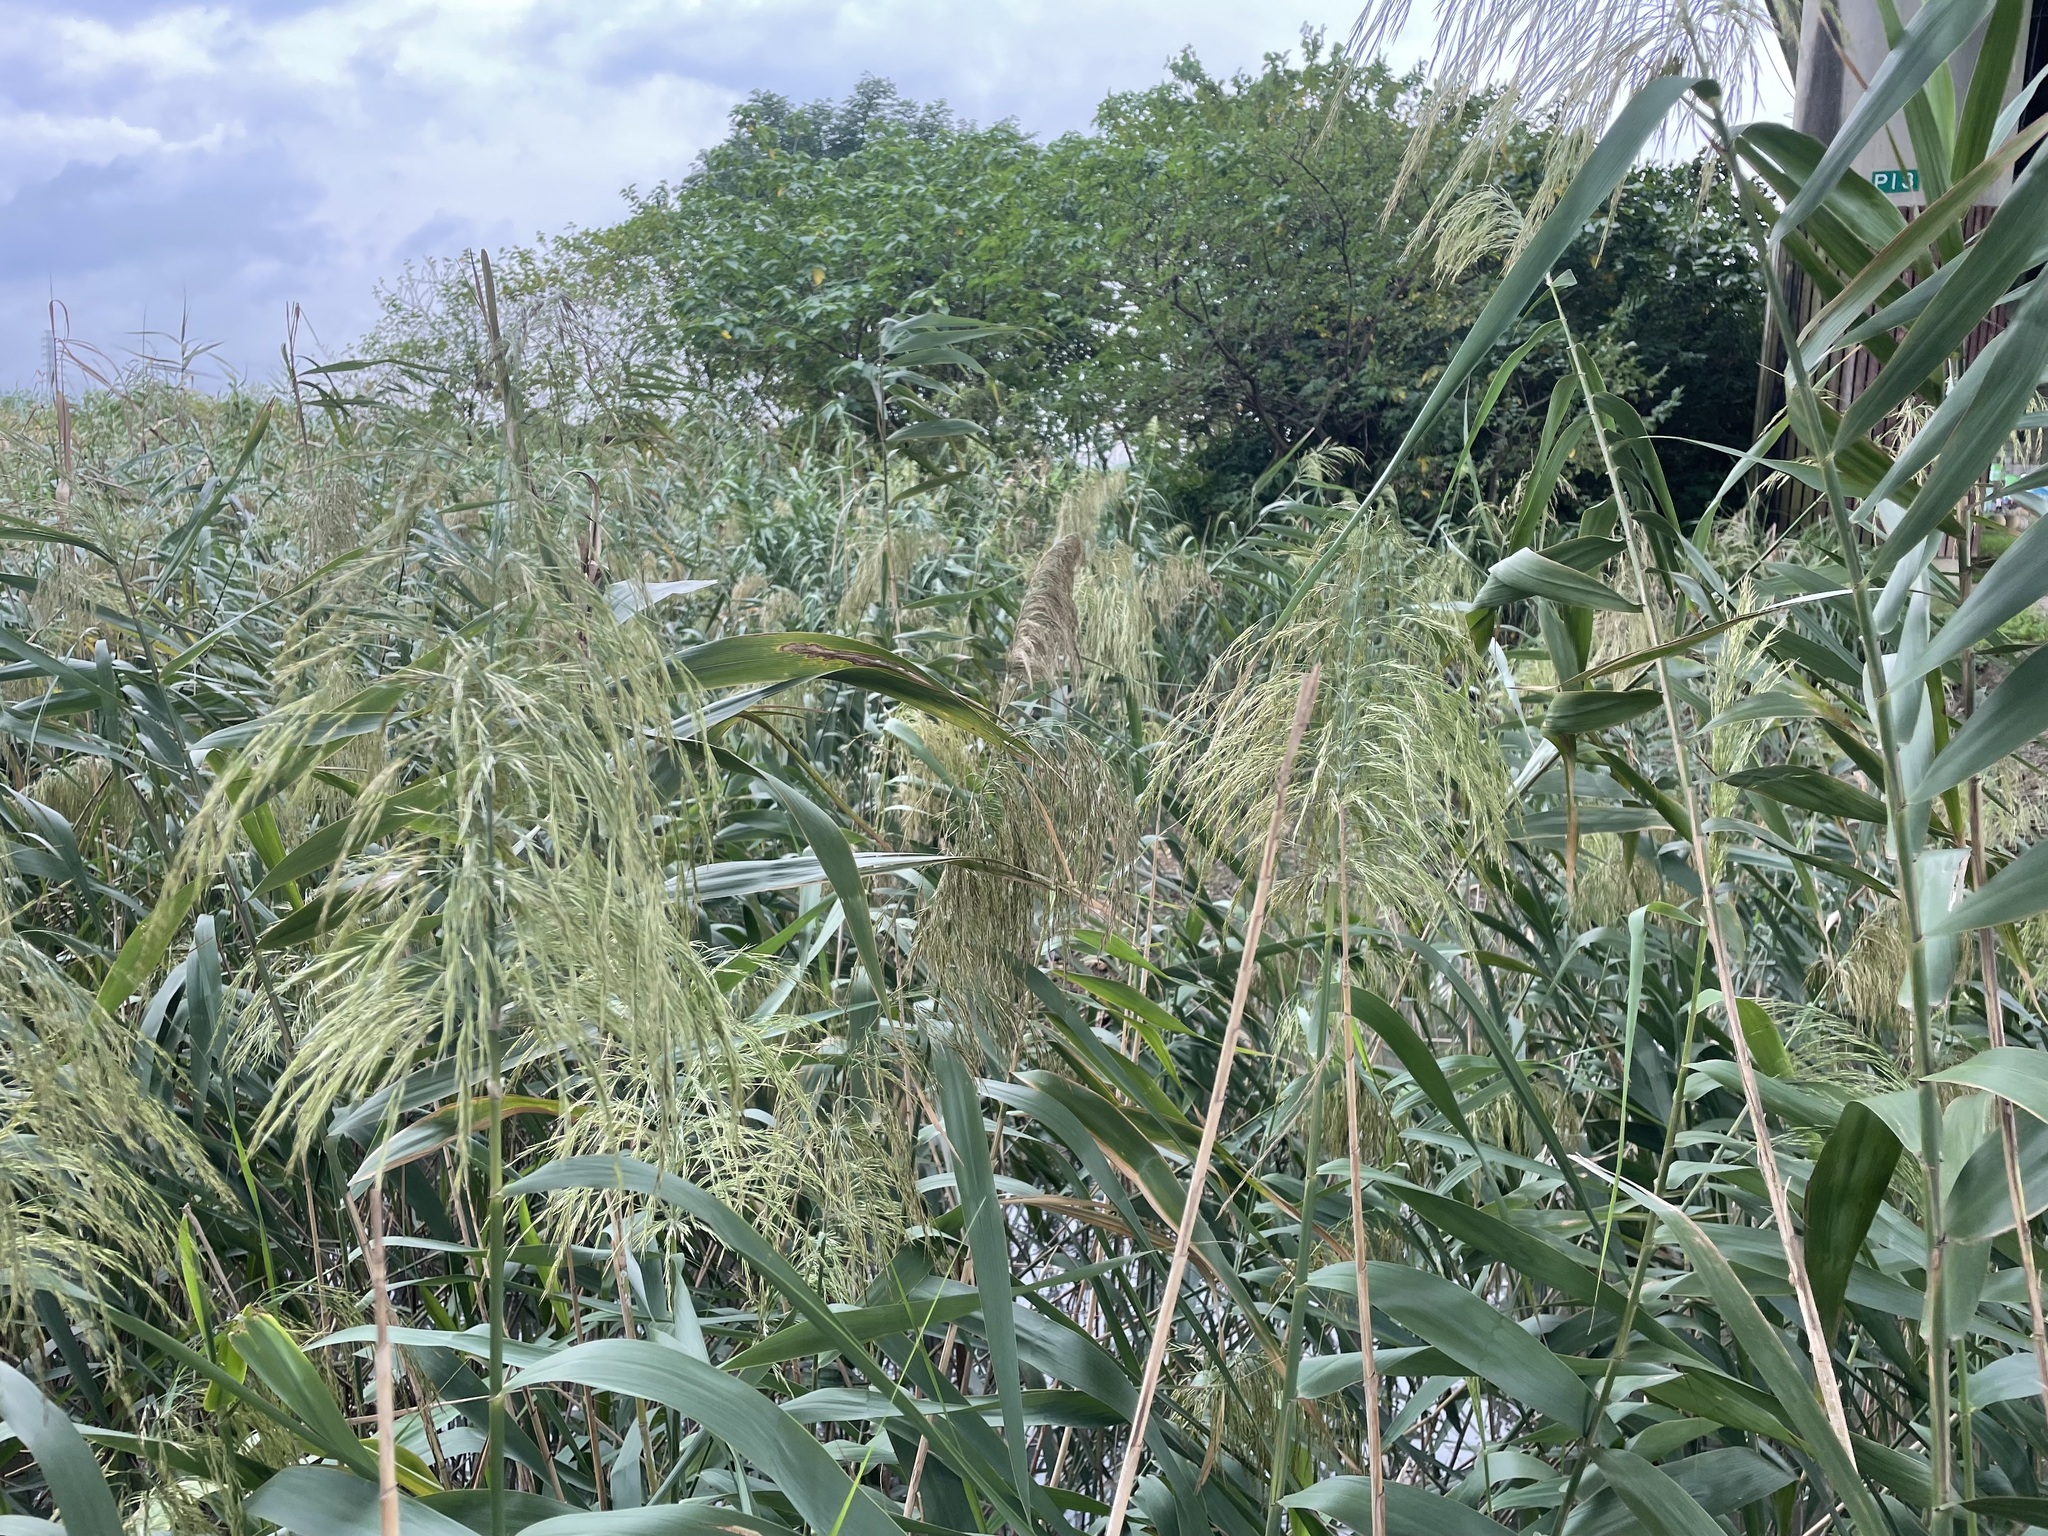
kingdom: Plantae
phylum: Tracheophyta
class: Liliopsida
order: Poales
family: Poaceae
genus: Phragmites
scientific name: Phragmites australis
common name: Common reed
